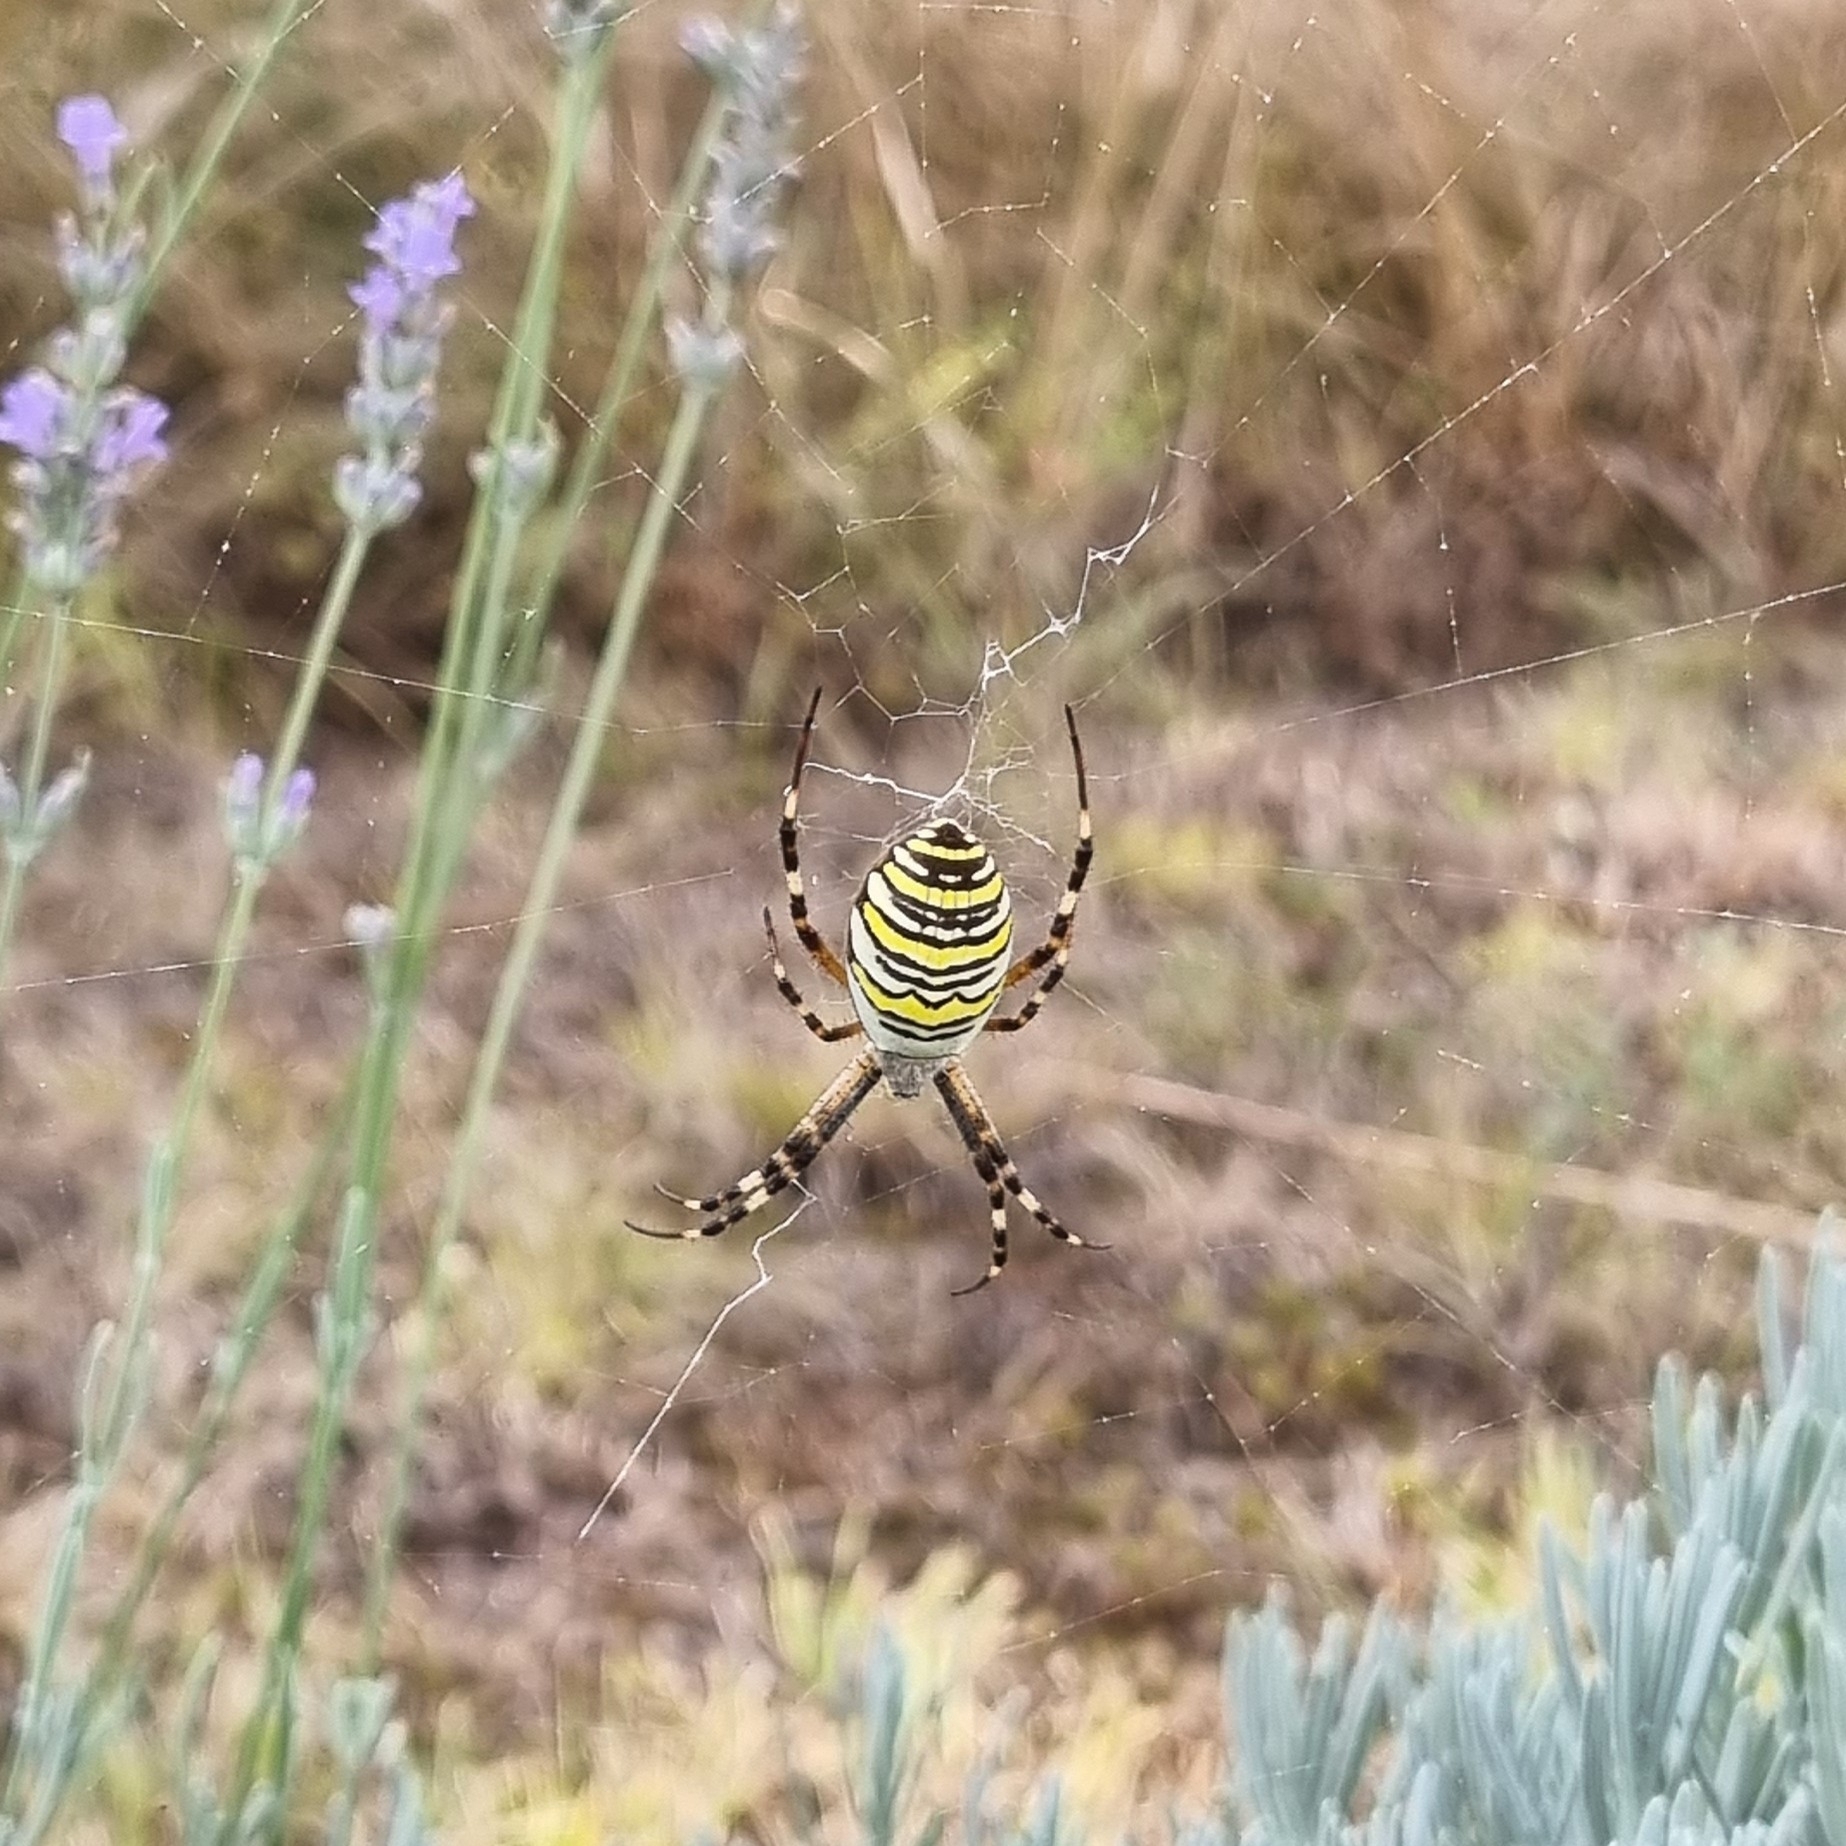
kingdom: Animalia
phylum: Arthropoda
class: Arachnida
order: Araneae
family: Araneidae
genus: Argiope
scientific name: Argiope bruennichi
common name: Wasp spider
